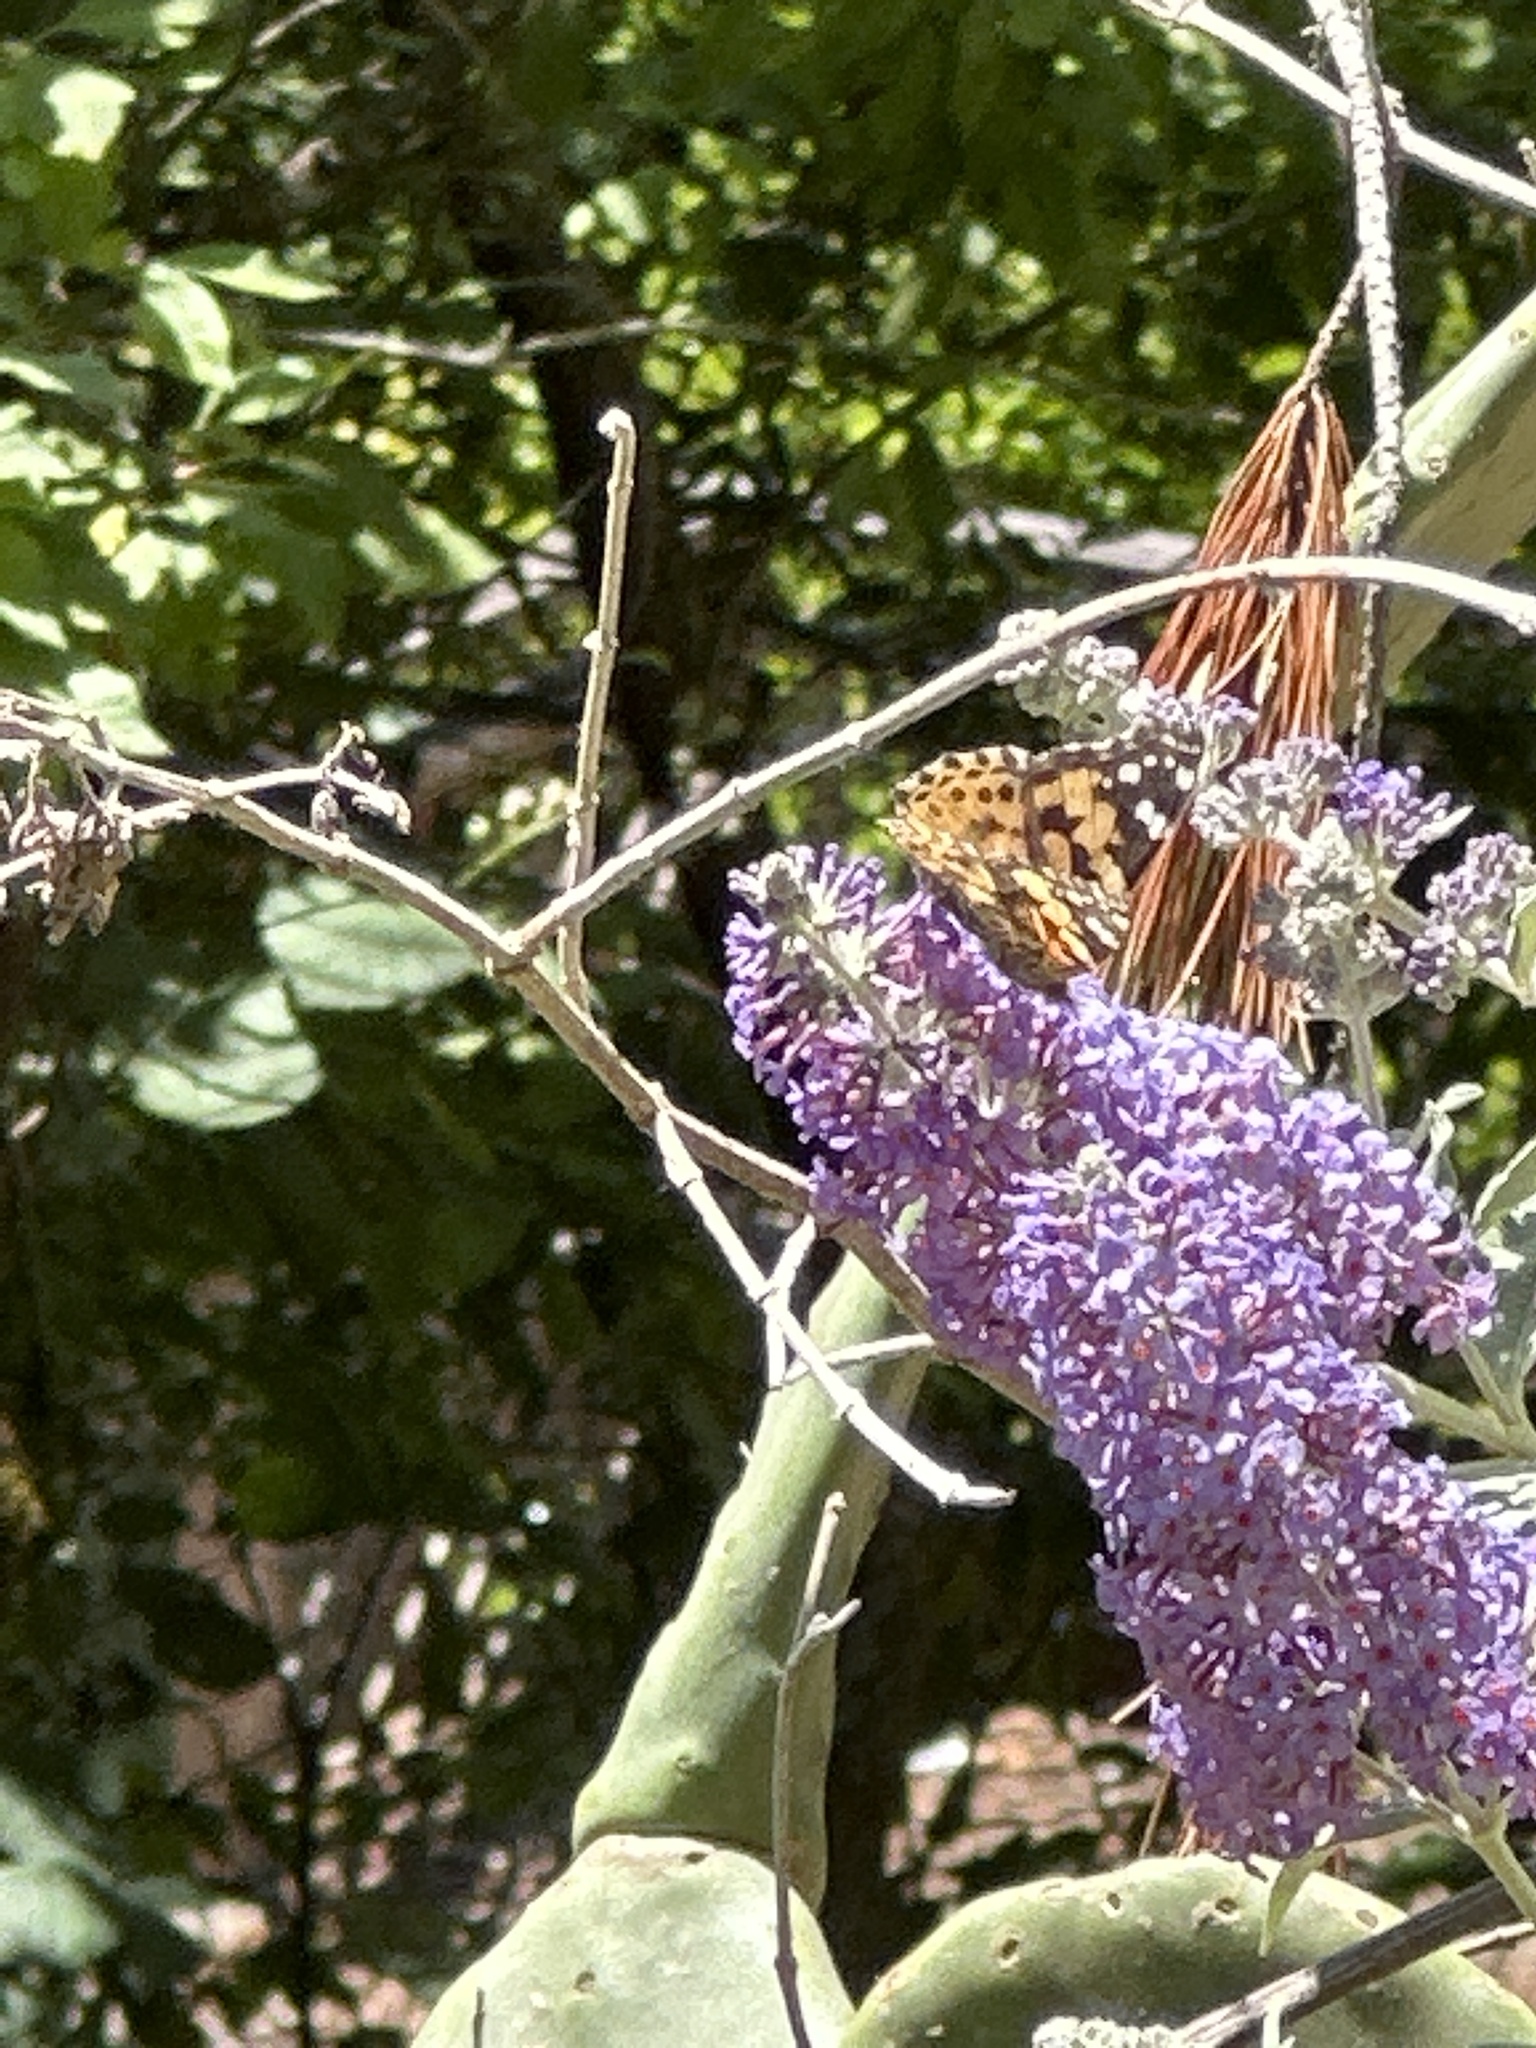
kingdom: Animalia
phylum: Arthropoda
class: Insecta
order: Lepidoptera
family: Nymphalidae
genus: Vanessa
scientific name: Vanessa cardui
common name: Painted lady
